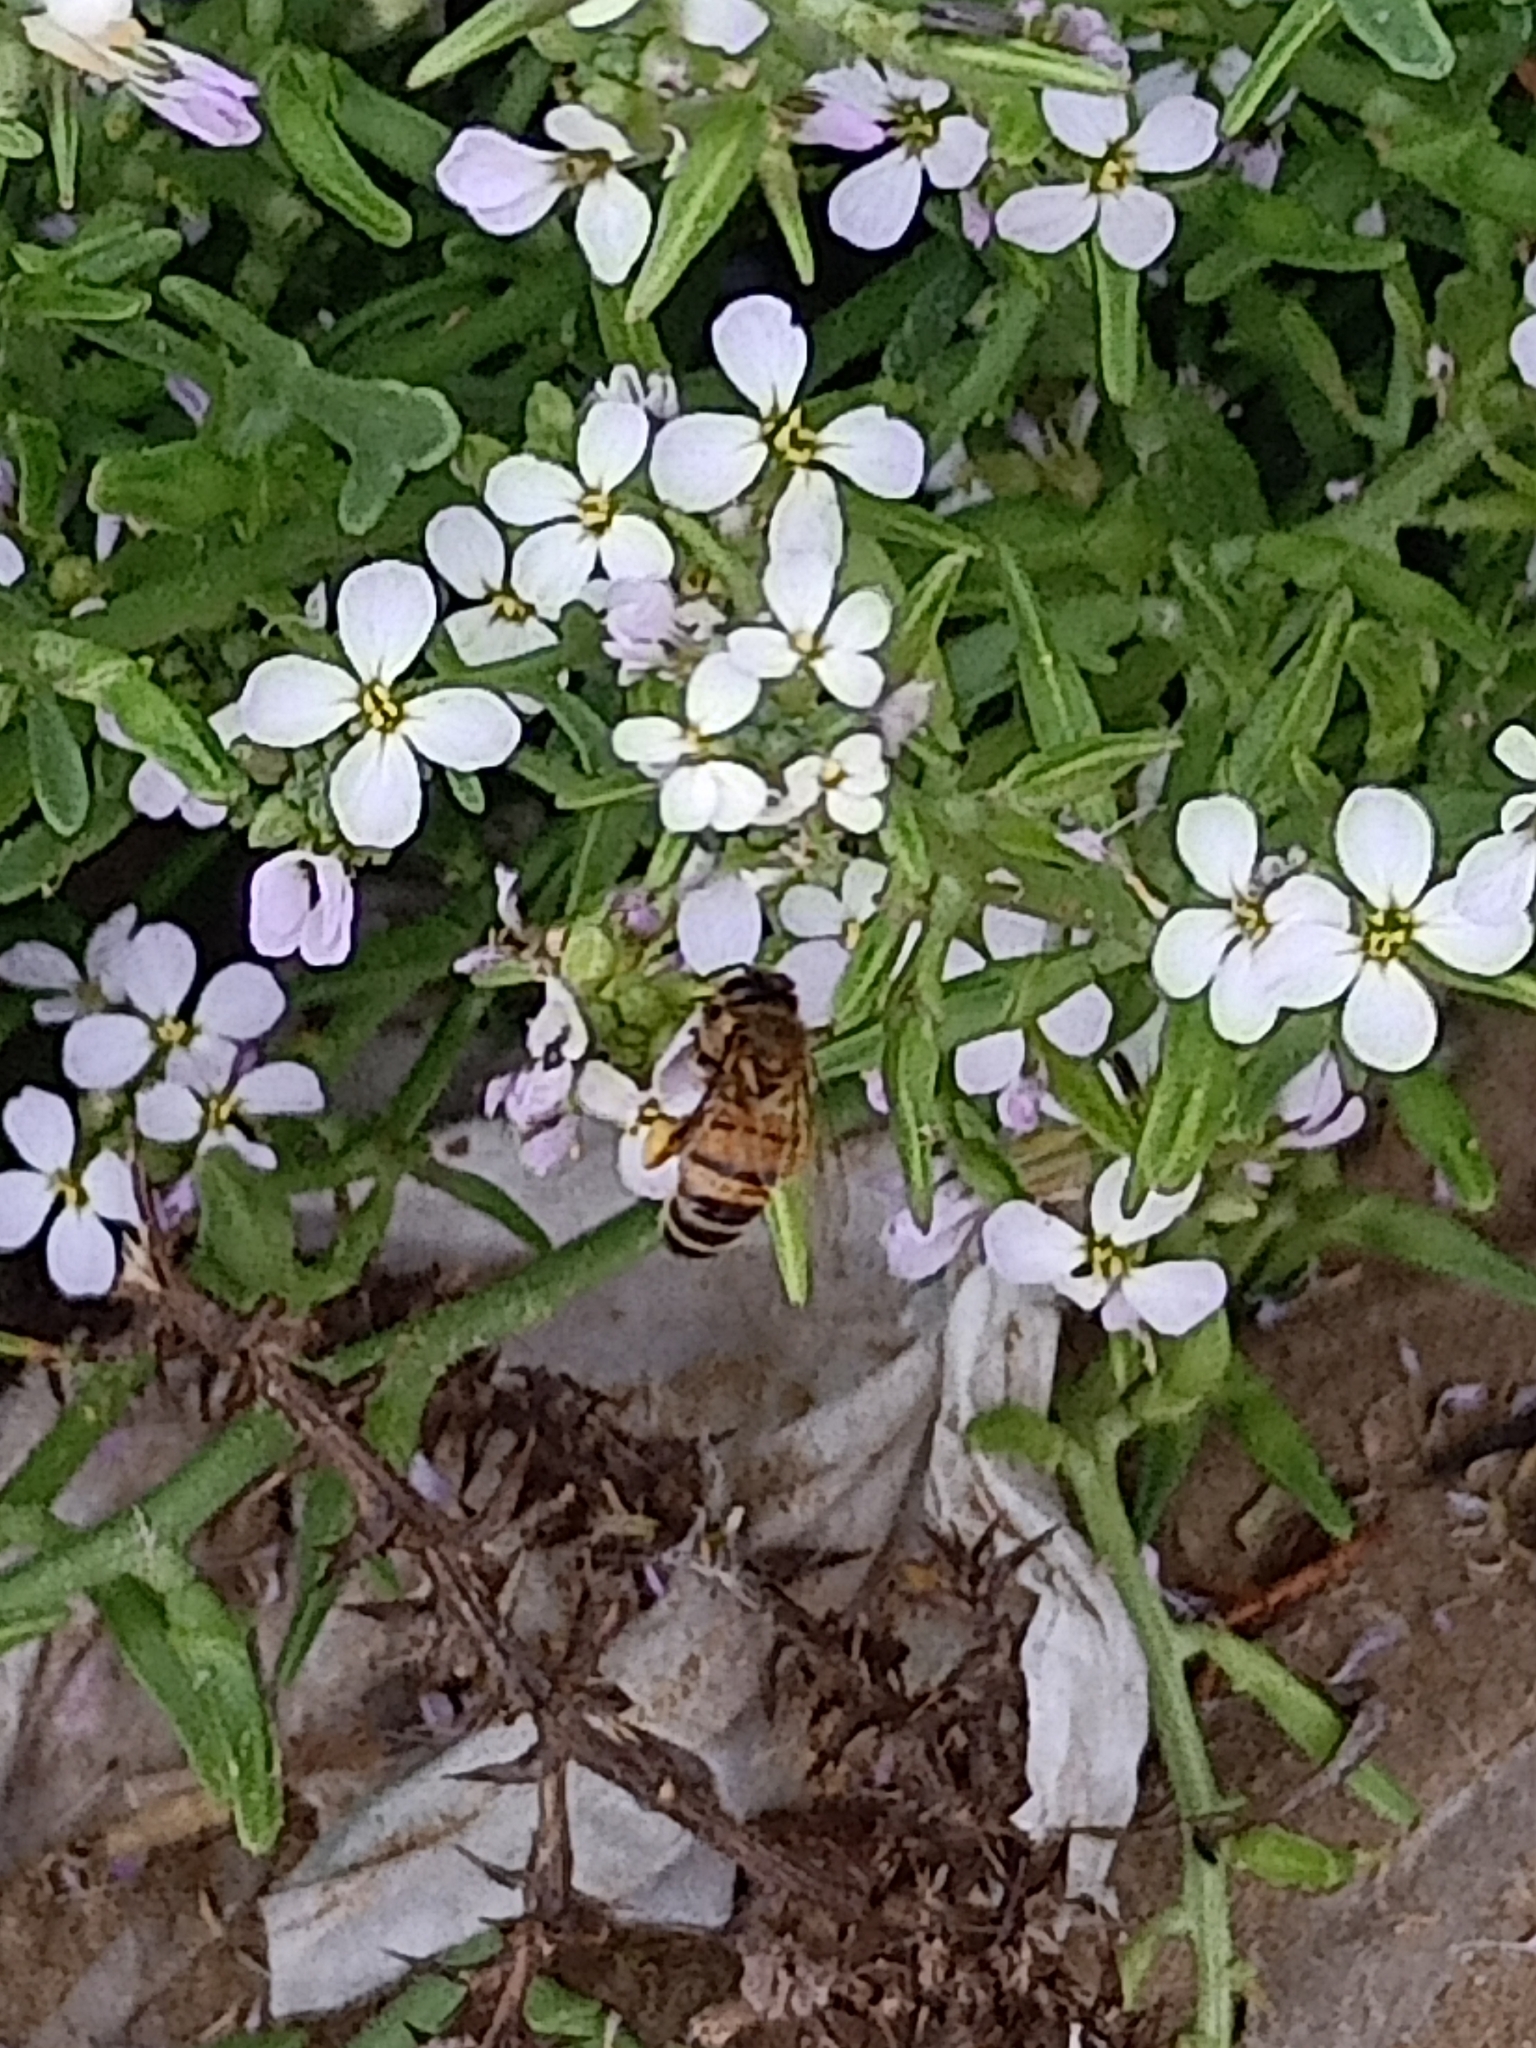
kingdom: Animalia
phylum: Arthropoda
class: Insecta
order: Hymenoptera
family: Apidae
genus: Apis
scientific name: Apis mellifera
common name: Honey bee
